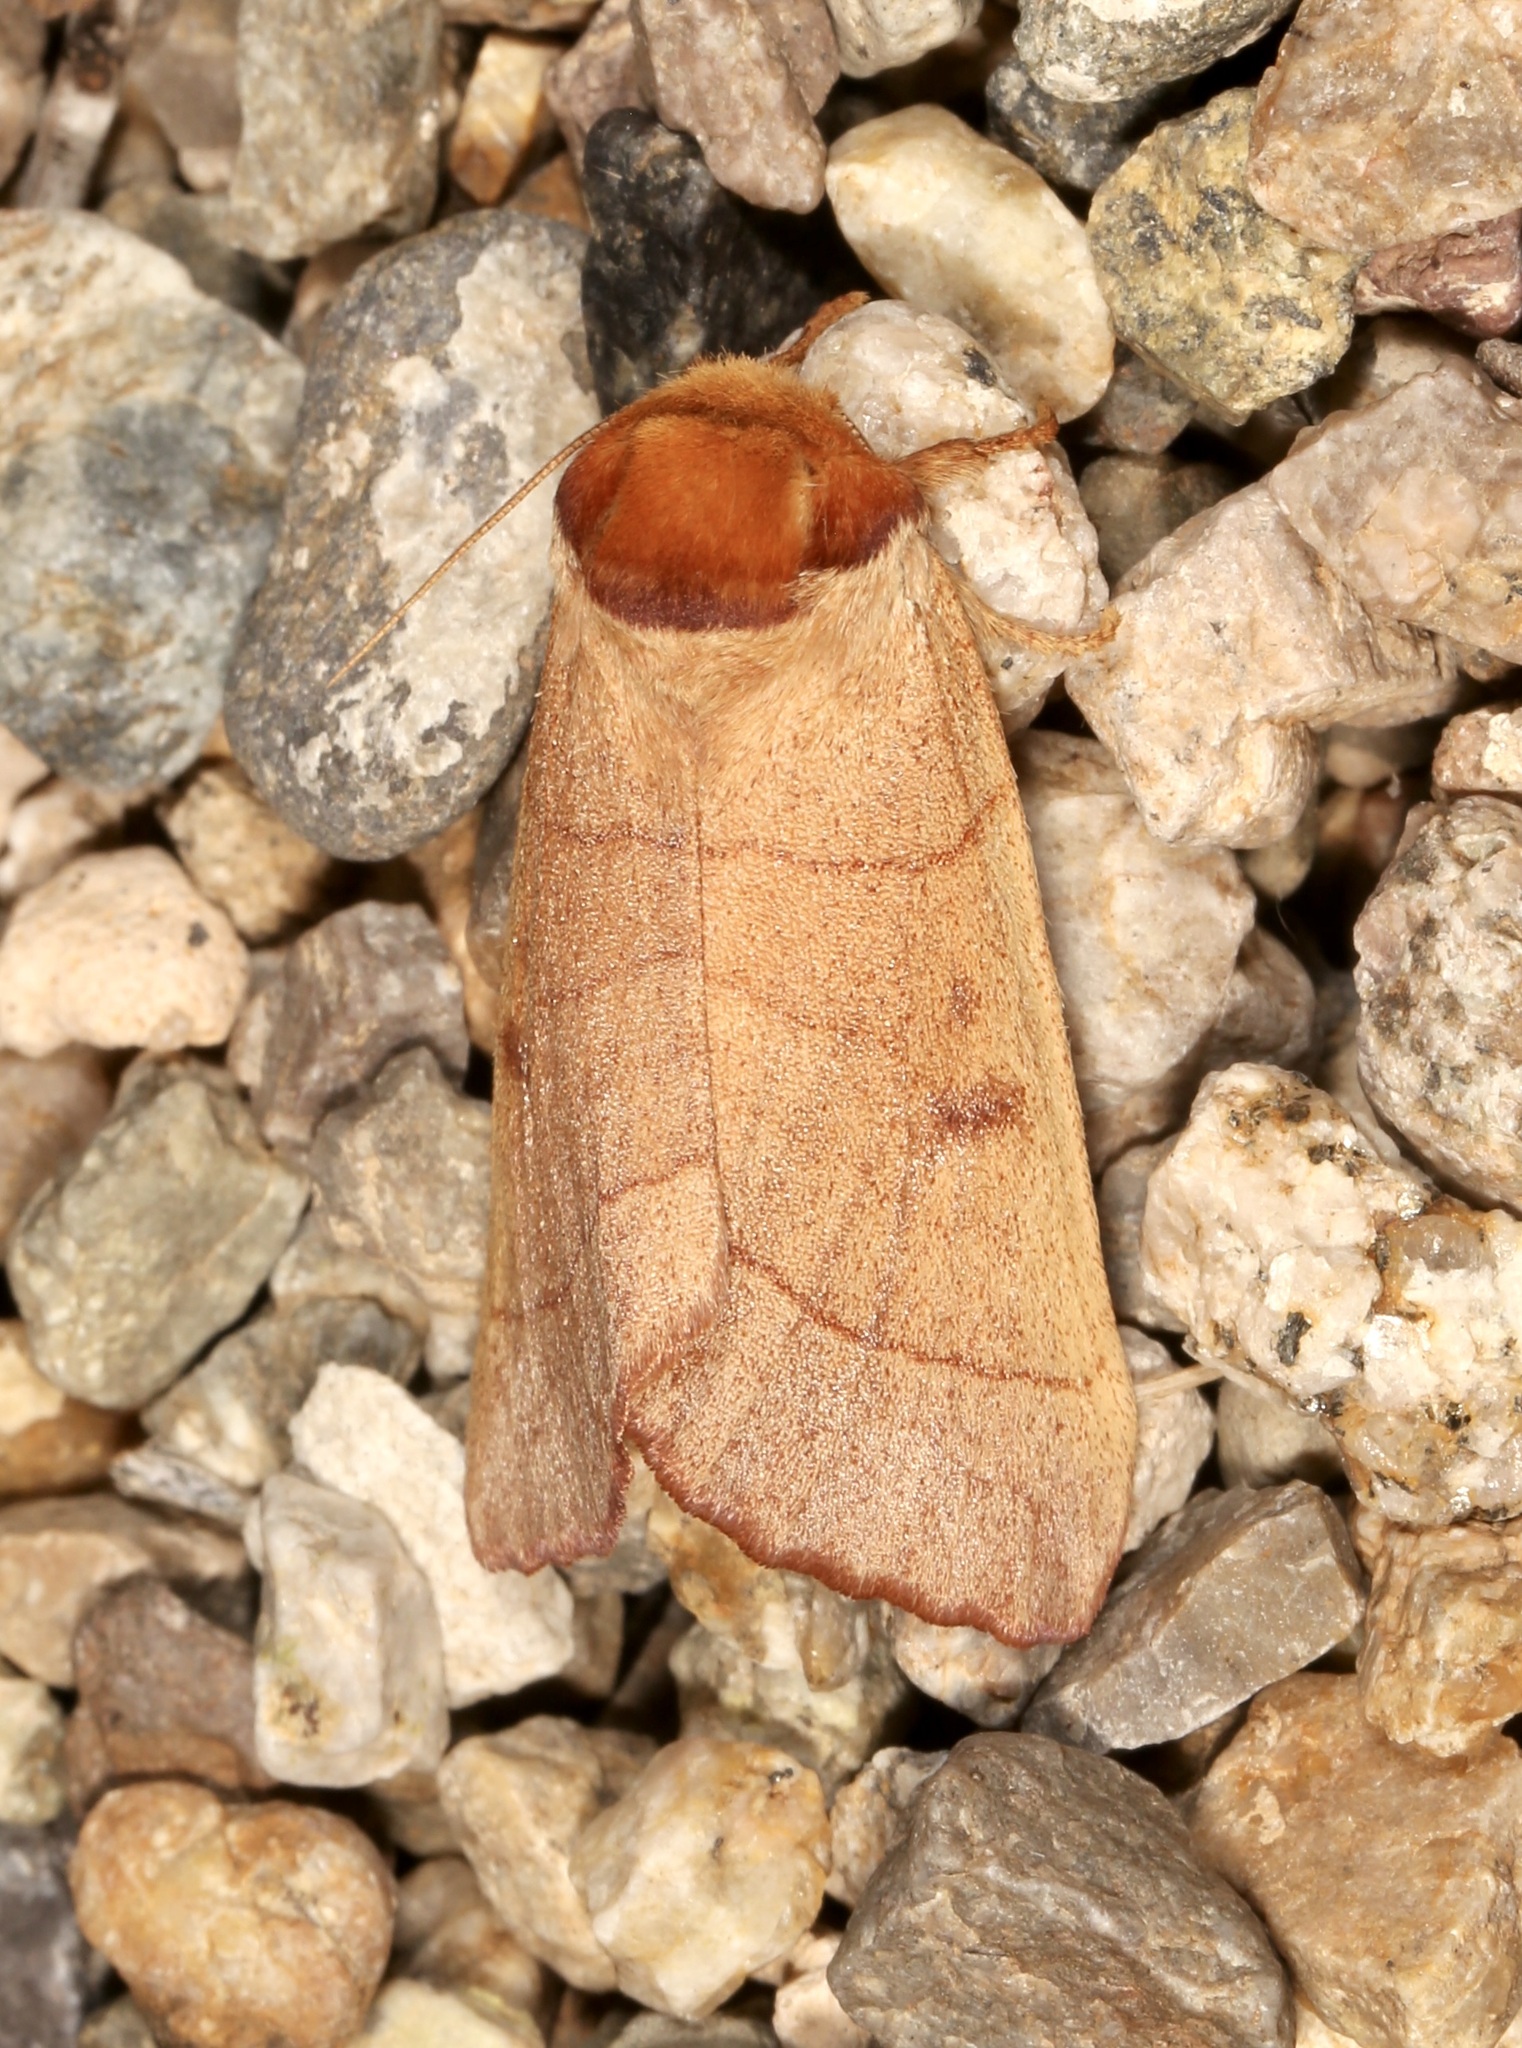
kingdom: Animalia
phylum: Arthropoda
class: Insecta
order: Lepidoptera
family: Notodontidae
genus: Datana
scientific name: Datana perspicua
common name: Spotted datana
